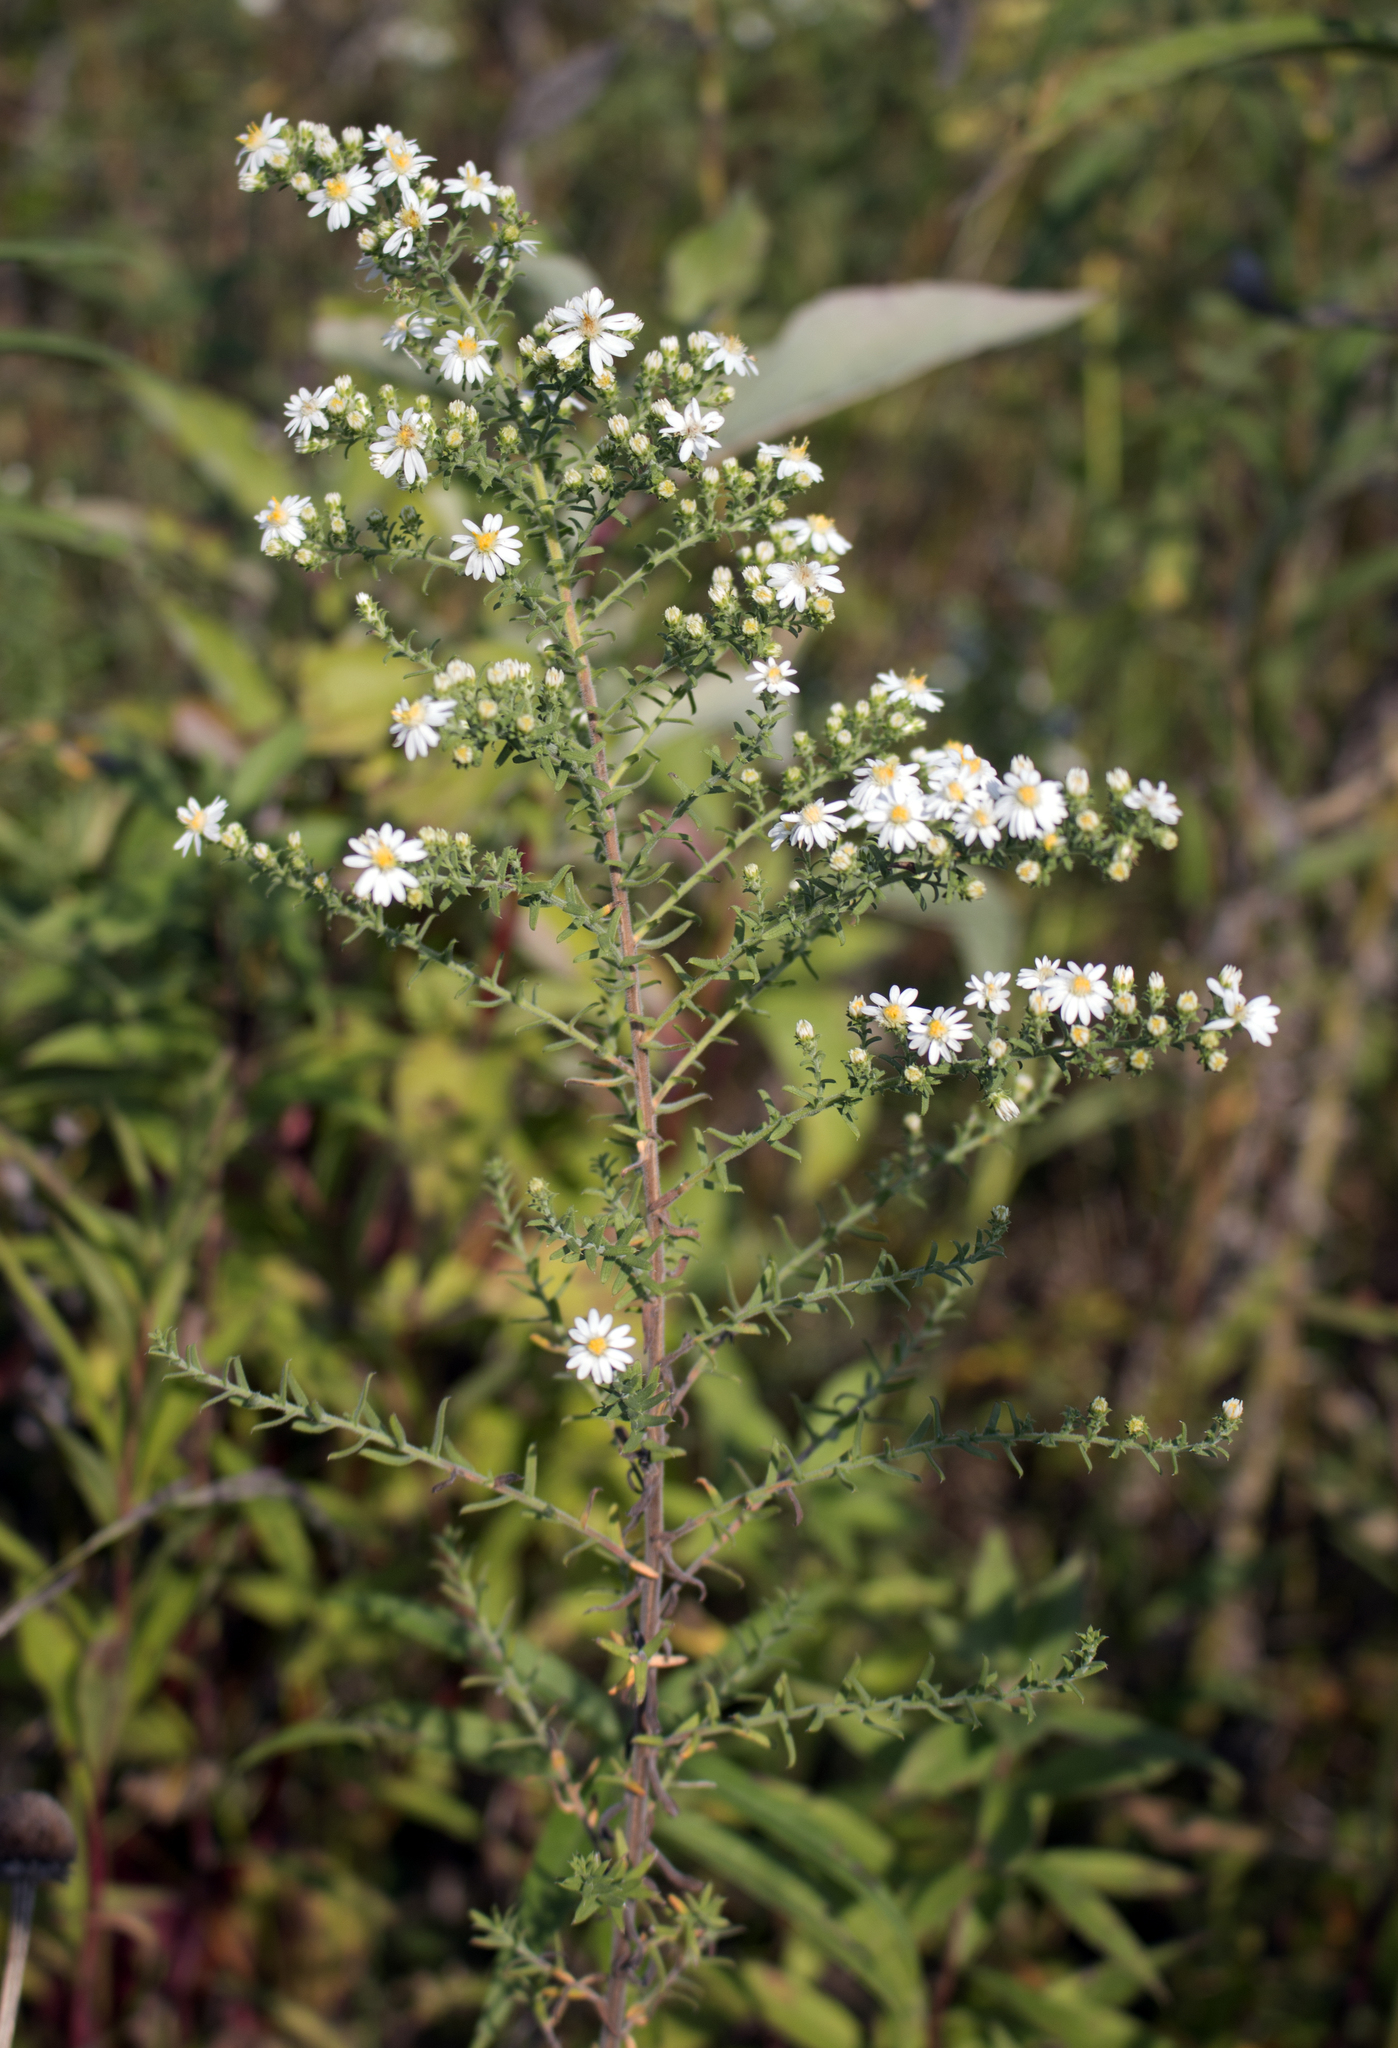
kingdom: Plantae
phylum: Tracheophyta
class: Magnoliopsida
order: Asterales
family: Asteraceae
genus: Symphyotrichum
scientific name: Symphyotrichum ericoides
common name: Heath aster
